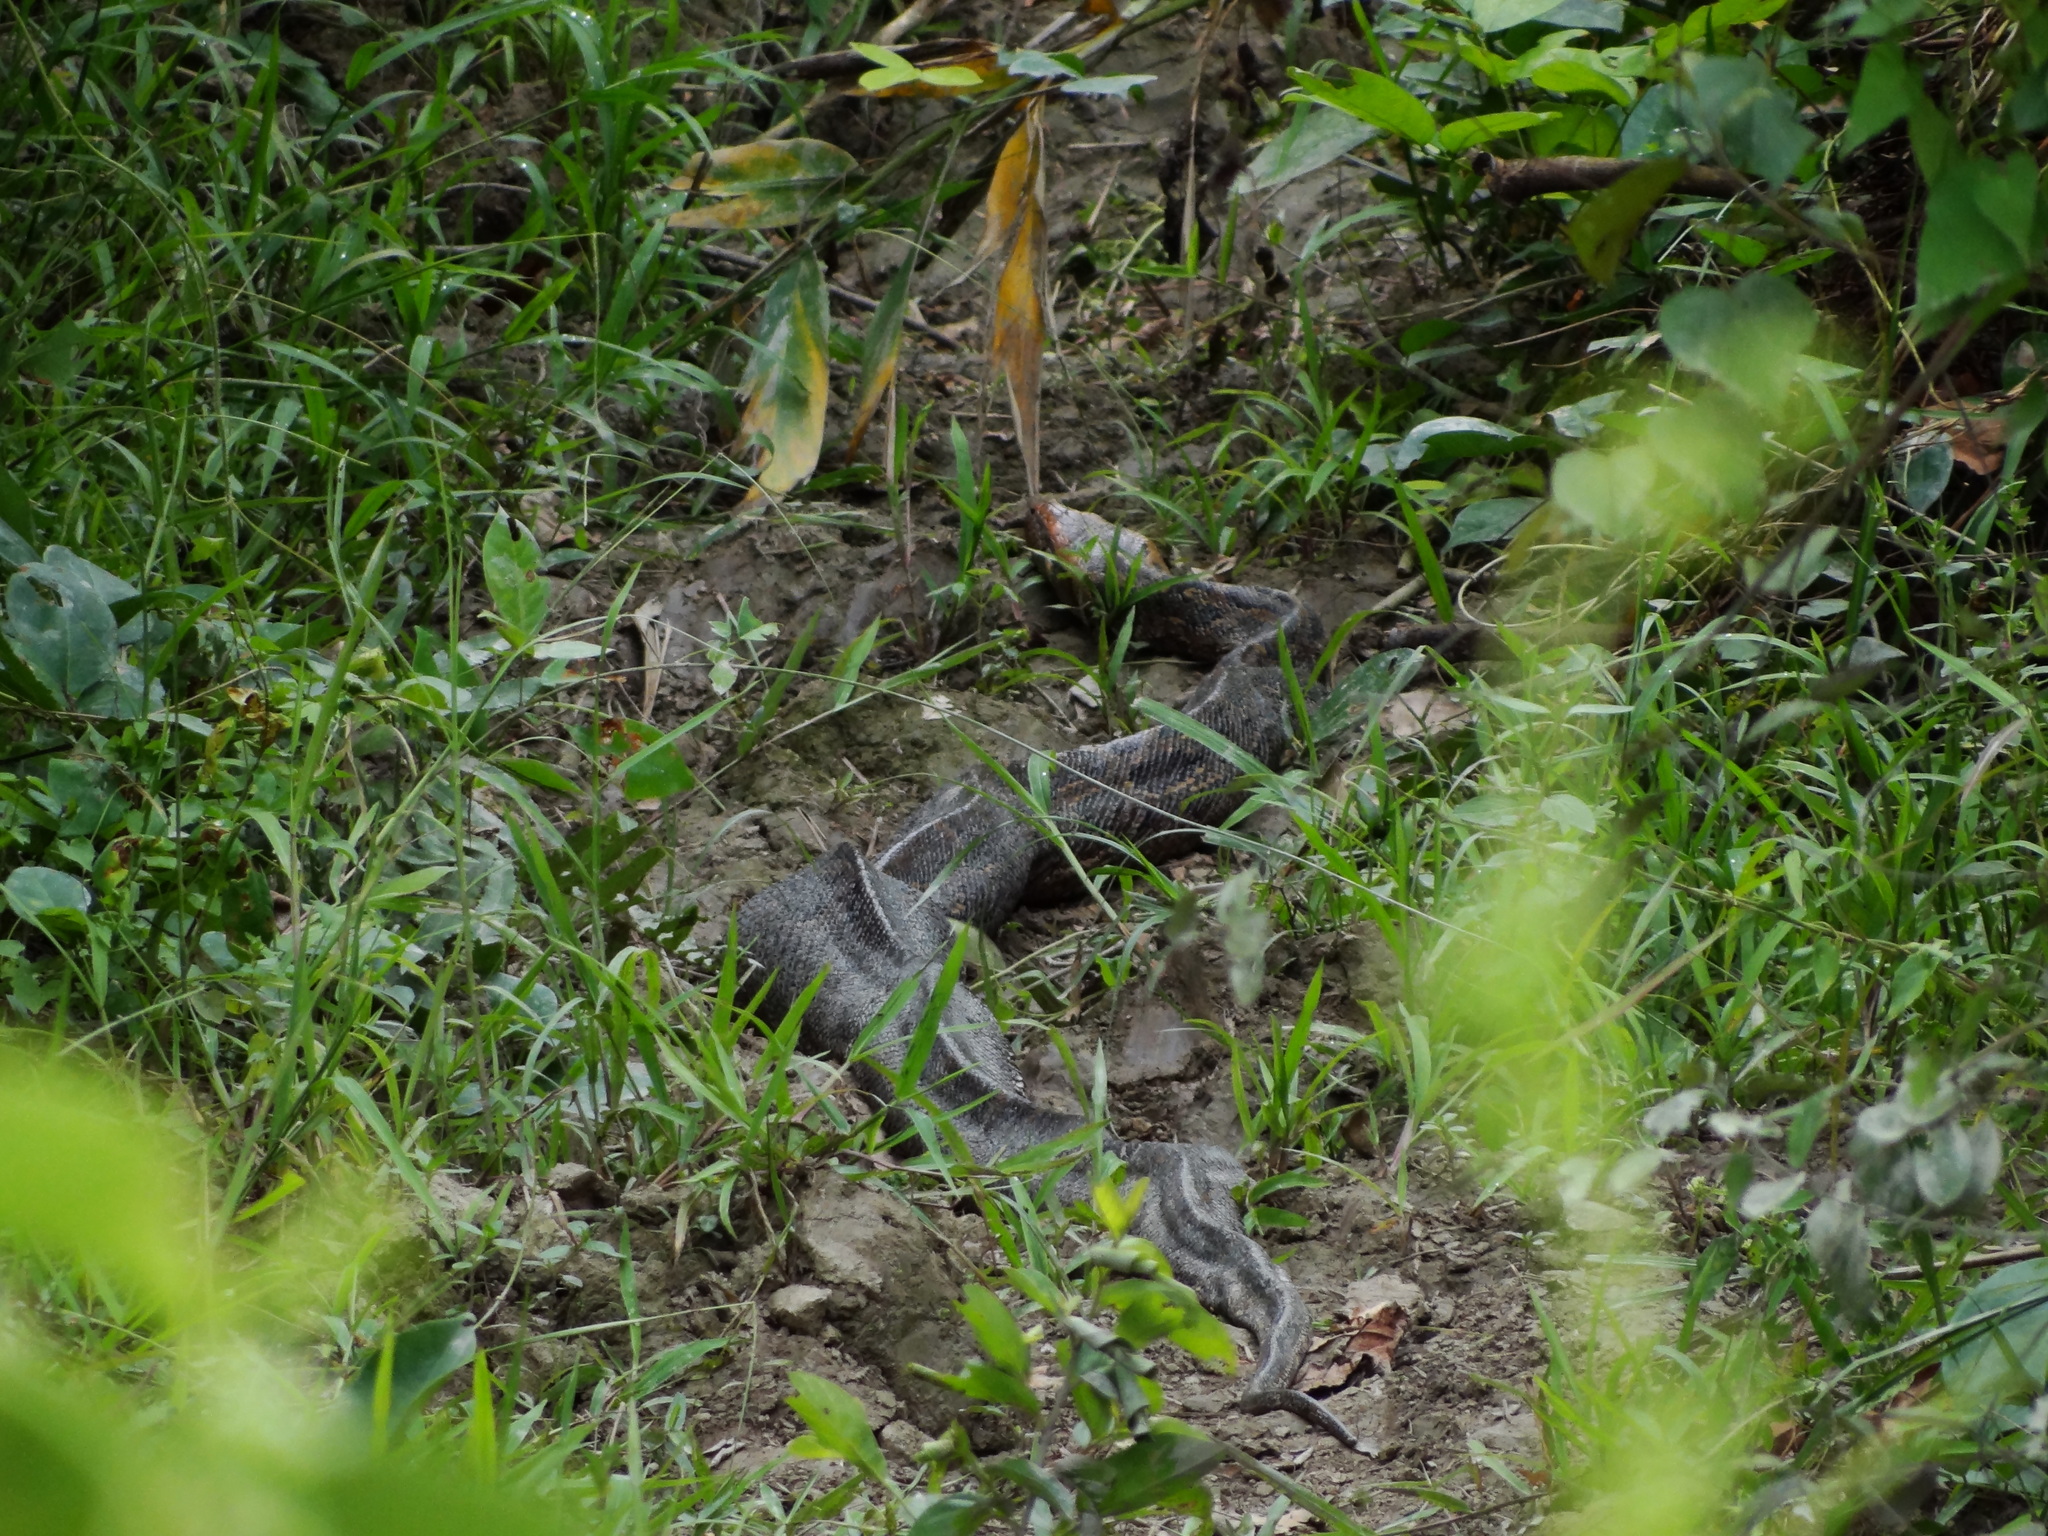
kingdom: Animalia
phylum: Chordata
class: Squamata
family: Pythonidae
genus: Python
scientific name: Python bivittatus
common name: Burmese python
